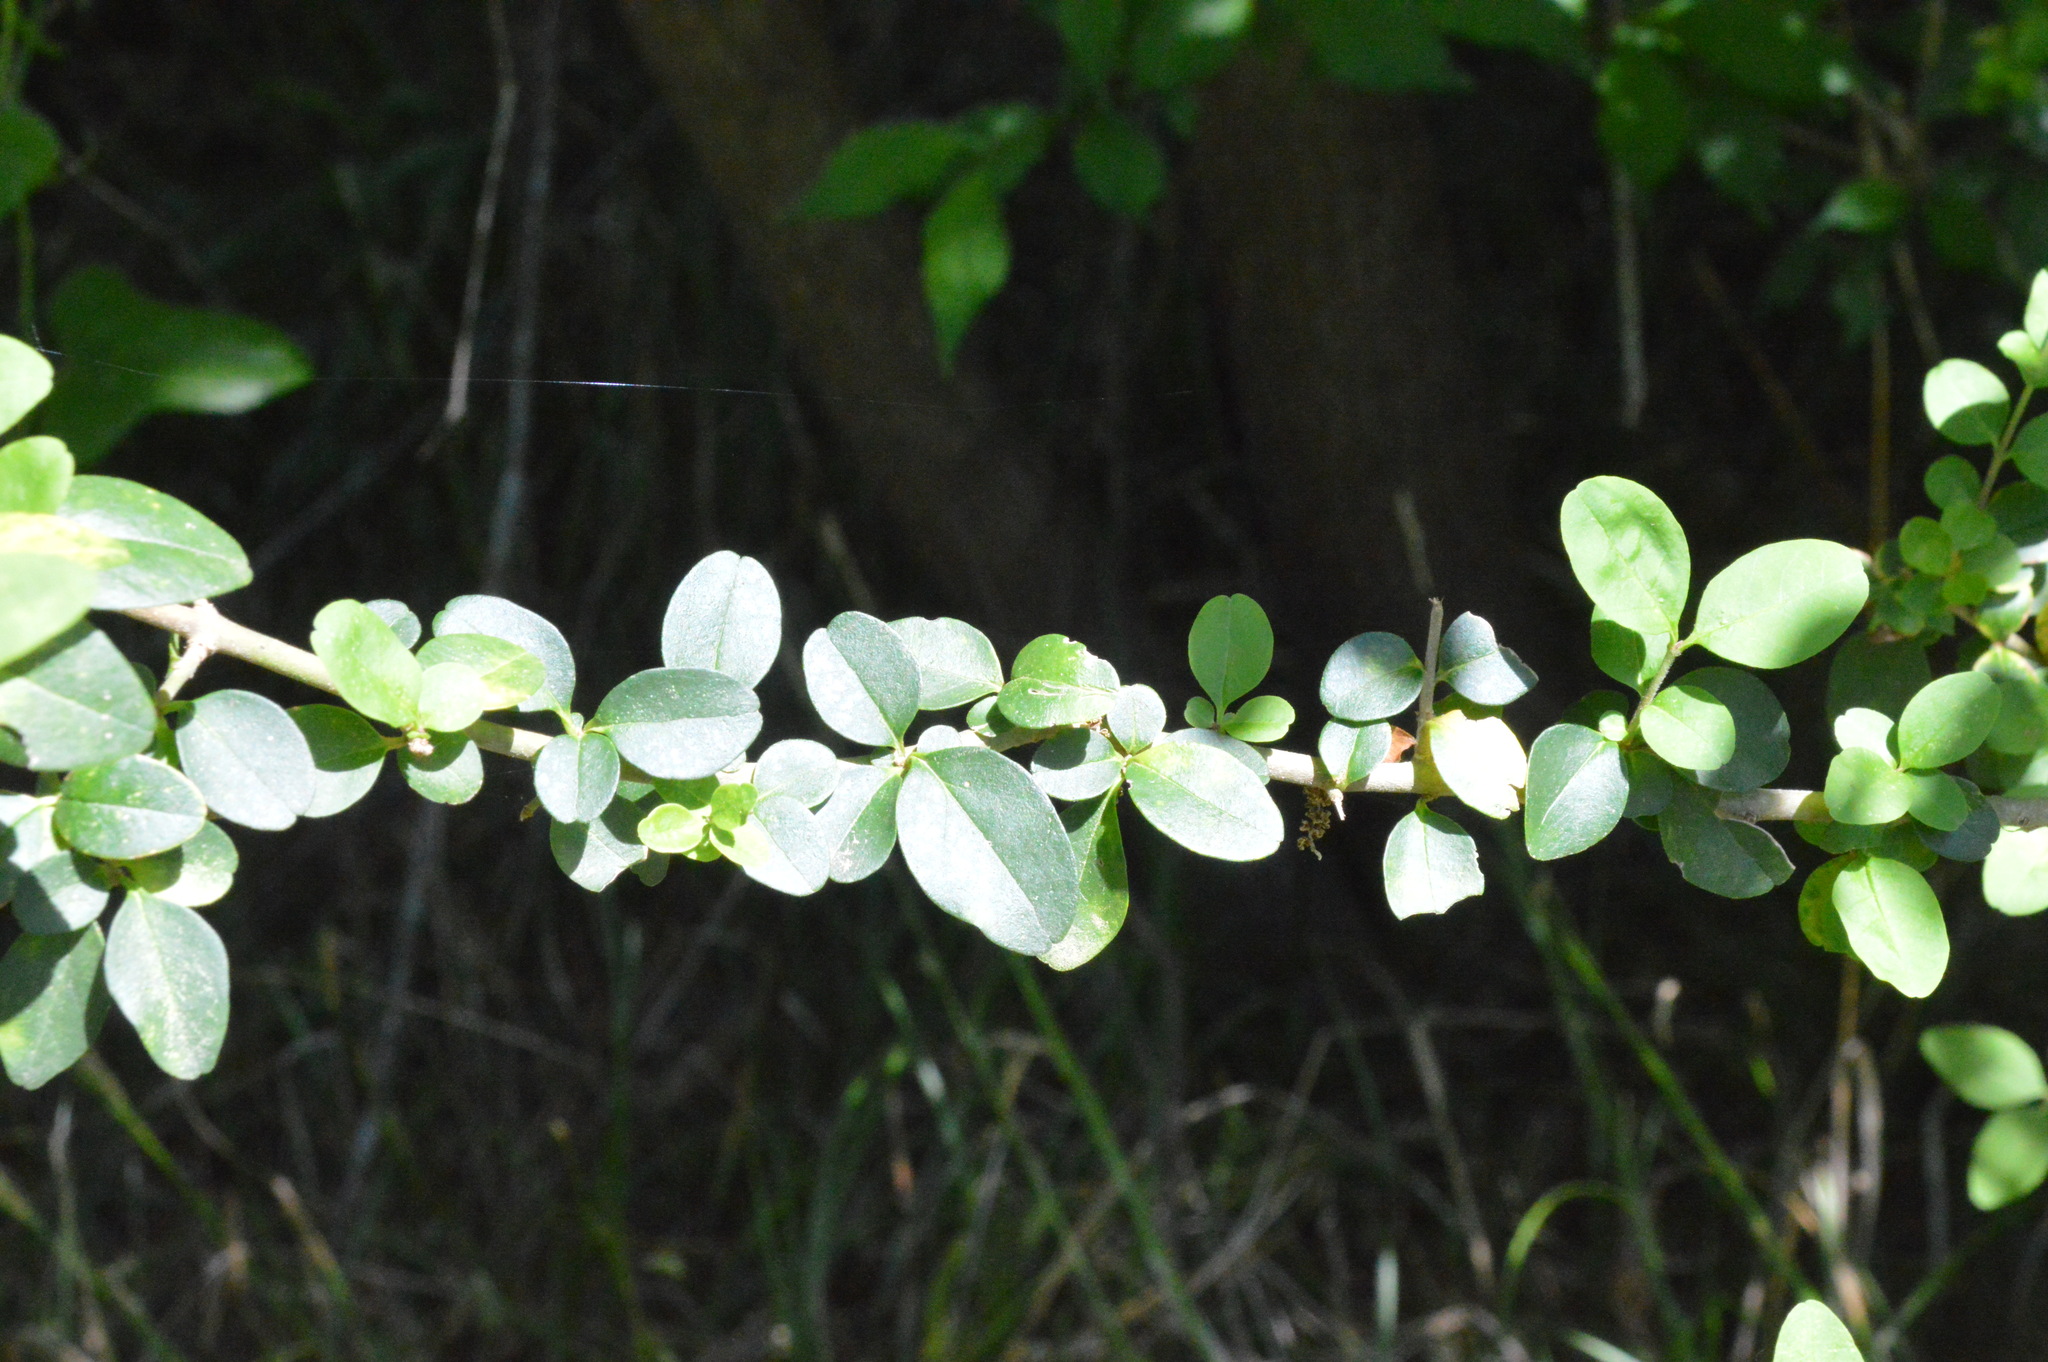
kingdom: Plantae
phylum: Tracheophyta
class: Magnoliopsida
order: Lamiales
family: Oleaceae
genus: Ligustrum
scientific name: Ligustrum sinense
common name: Chinese privet
